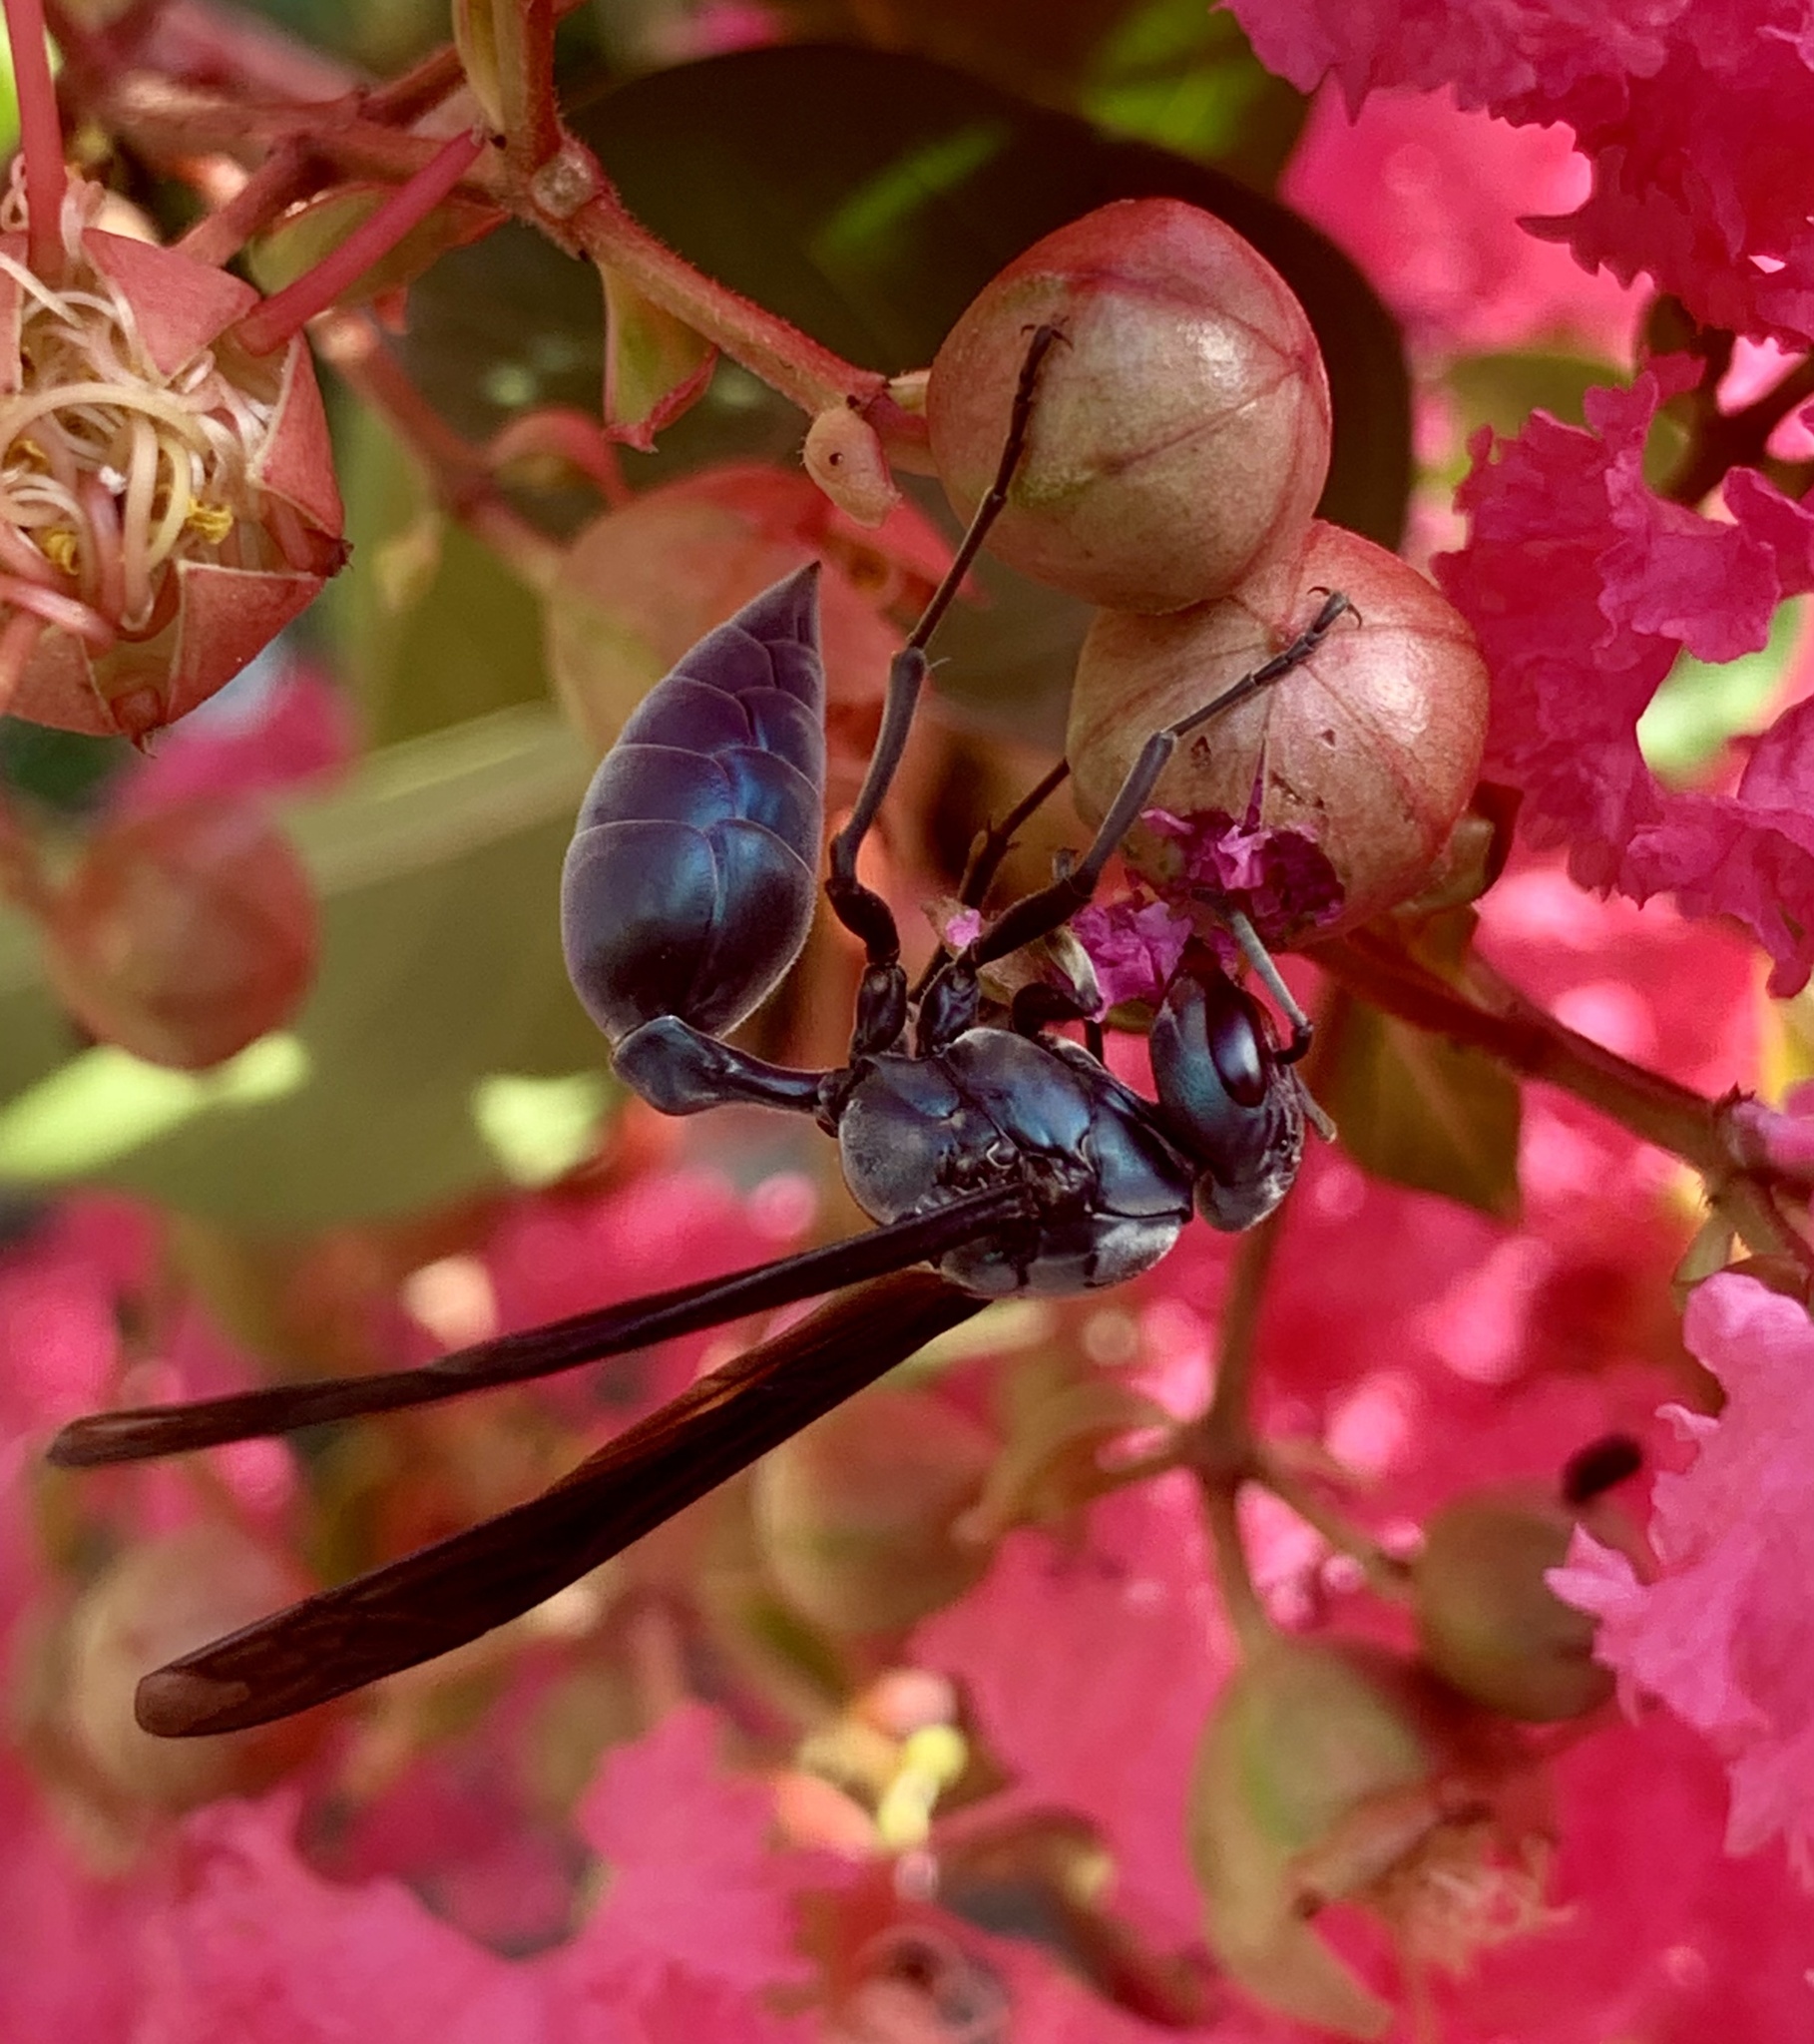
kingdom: Animalia
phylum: Arthropoda
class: Insecta
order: Hymenoptera
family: Vespidae
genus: Synoeca
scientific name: Synoeca cyanea
